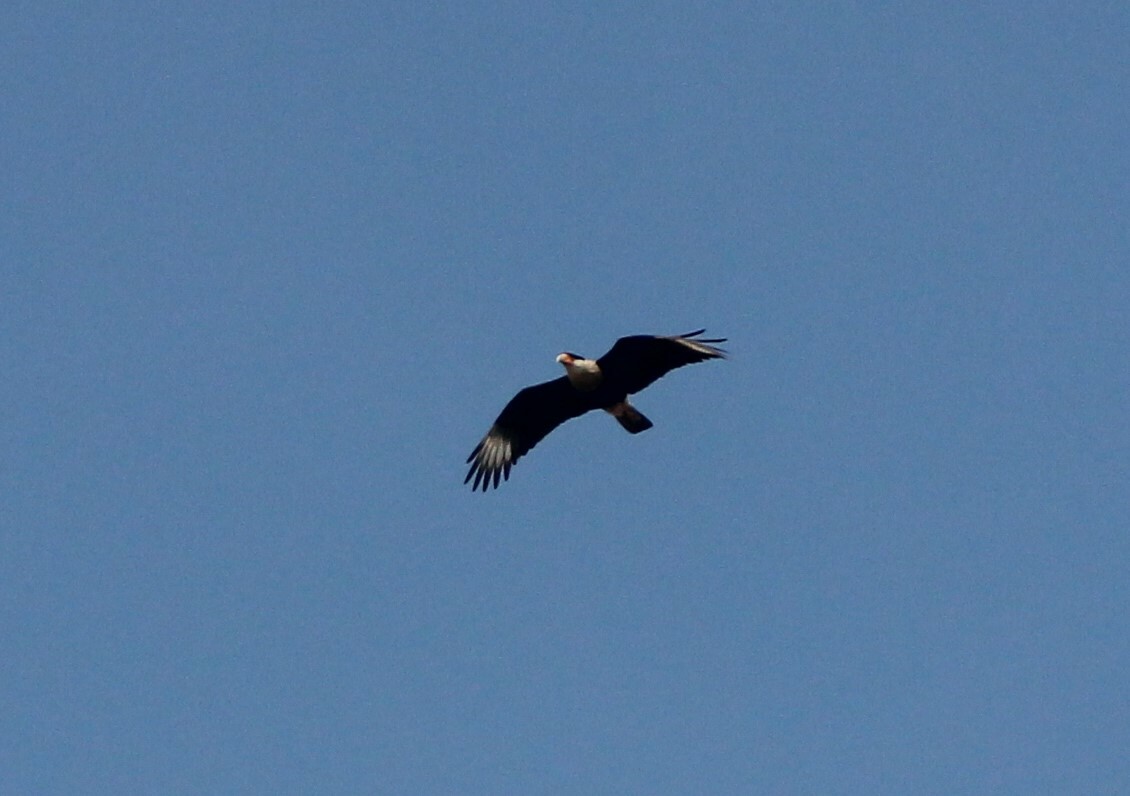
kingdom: Animalia
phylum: Chordata
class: Aves
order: Falconiformes
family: Falconidae
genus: Caracara
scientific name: Caracara plancus
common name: Southern caracara
